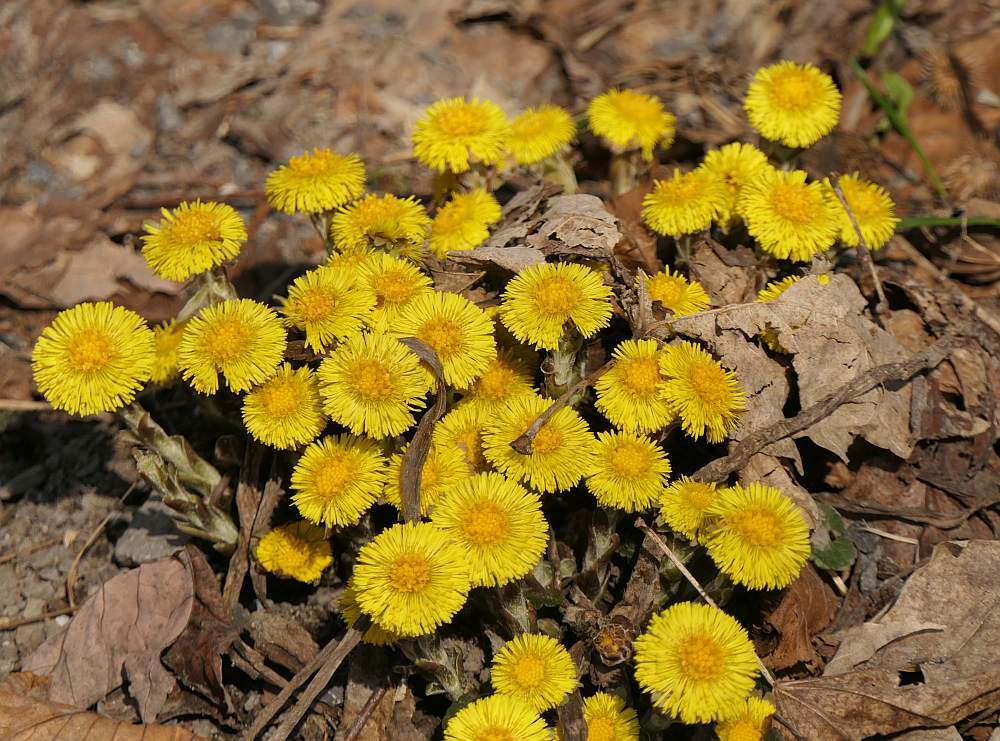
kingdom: Plantae
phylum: Tracheophyta
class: Magnoliopsida
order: Asterales
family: Asteraceae
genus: Tussilago
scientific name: Tussilago farfara
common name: Coltsfoot
